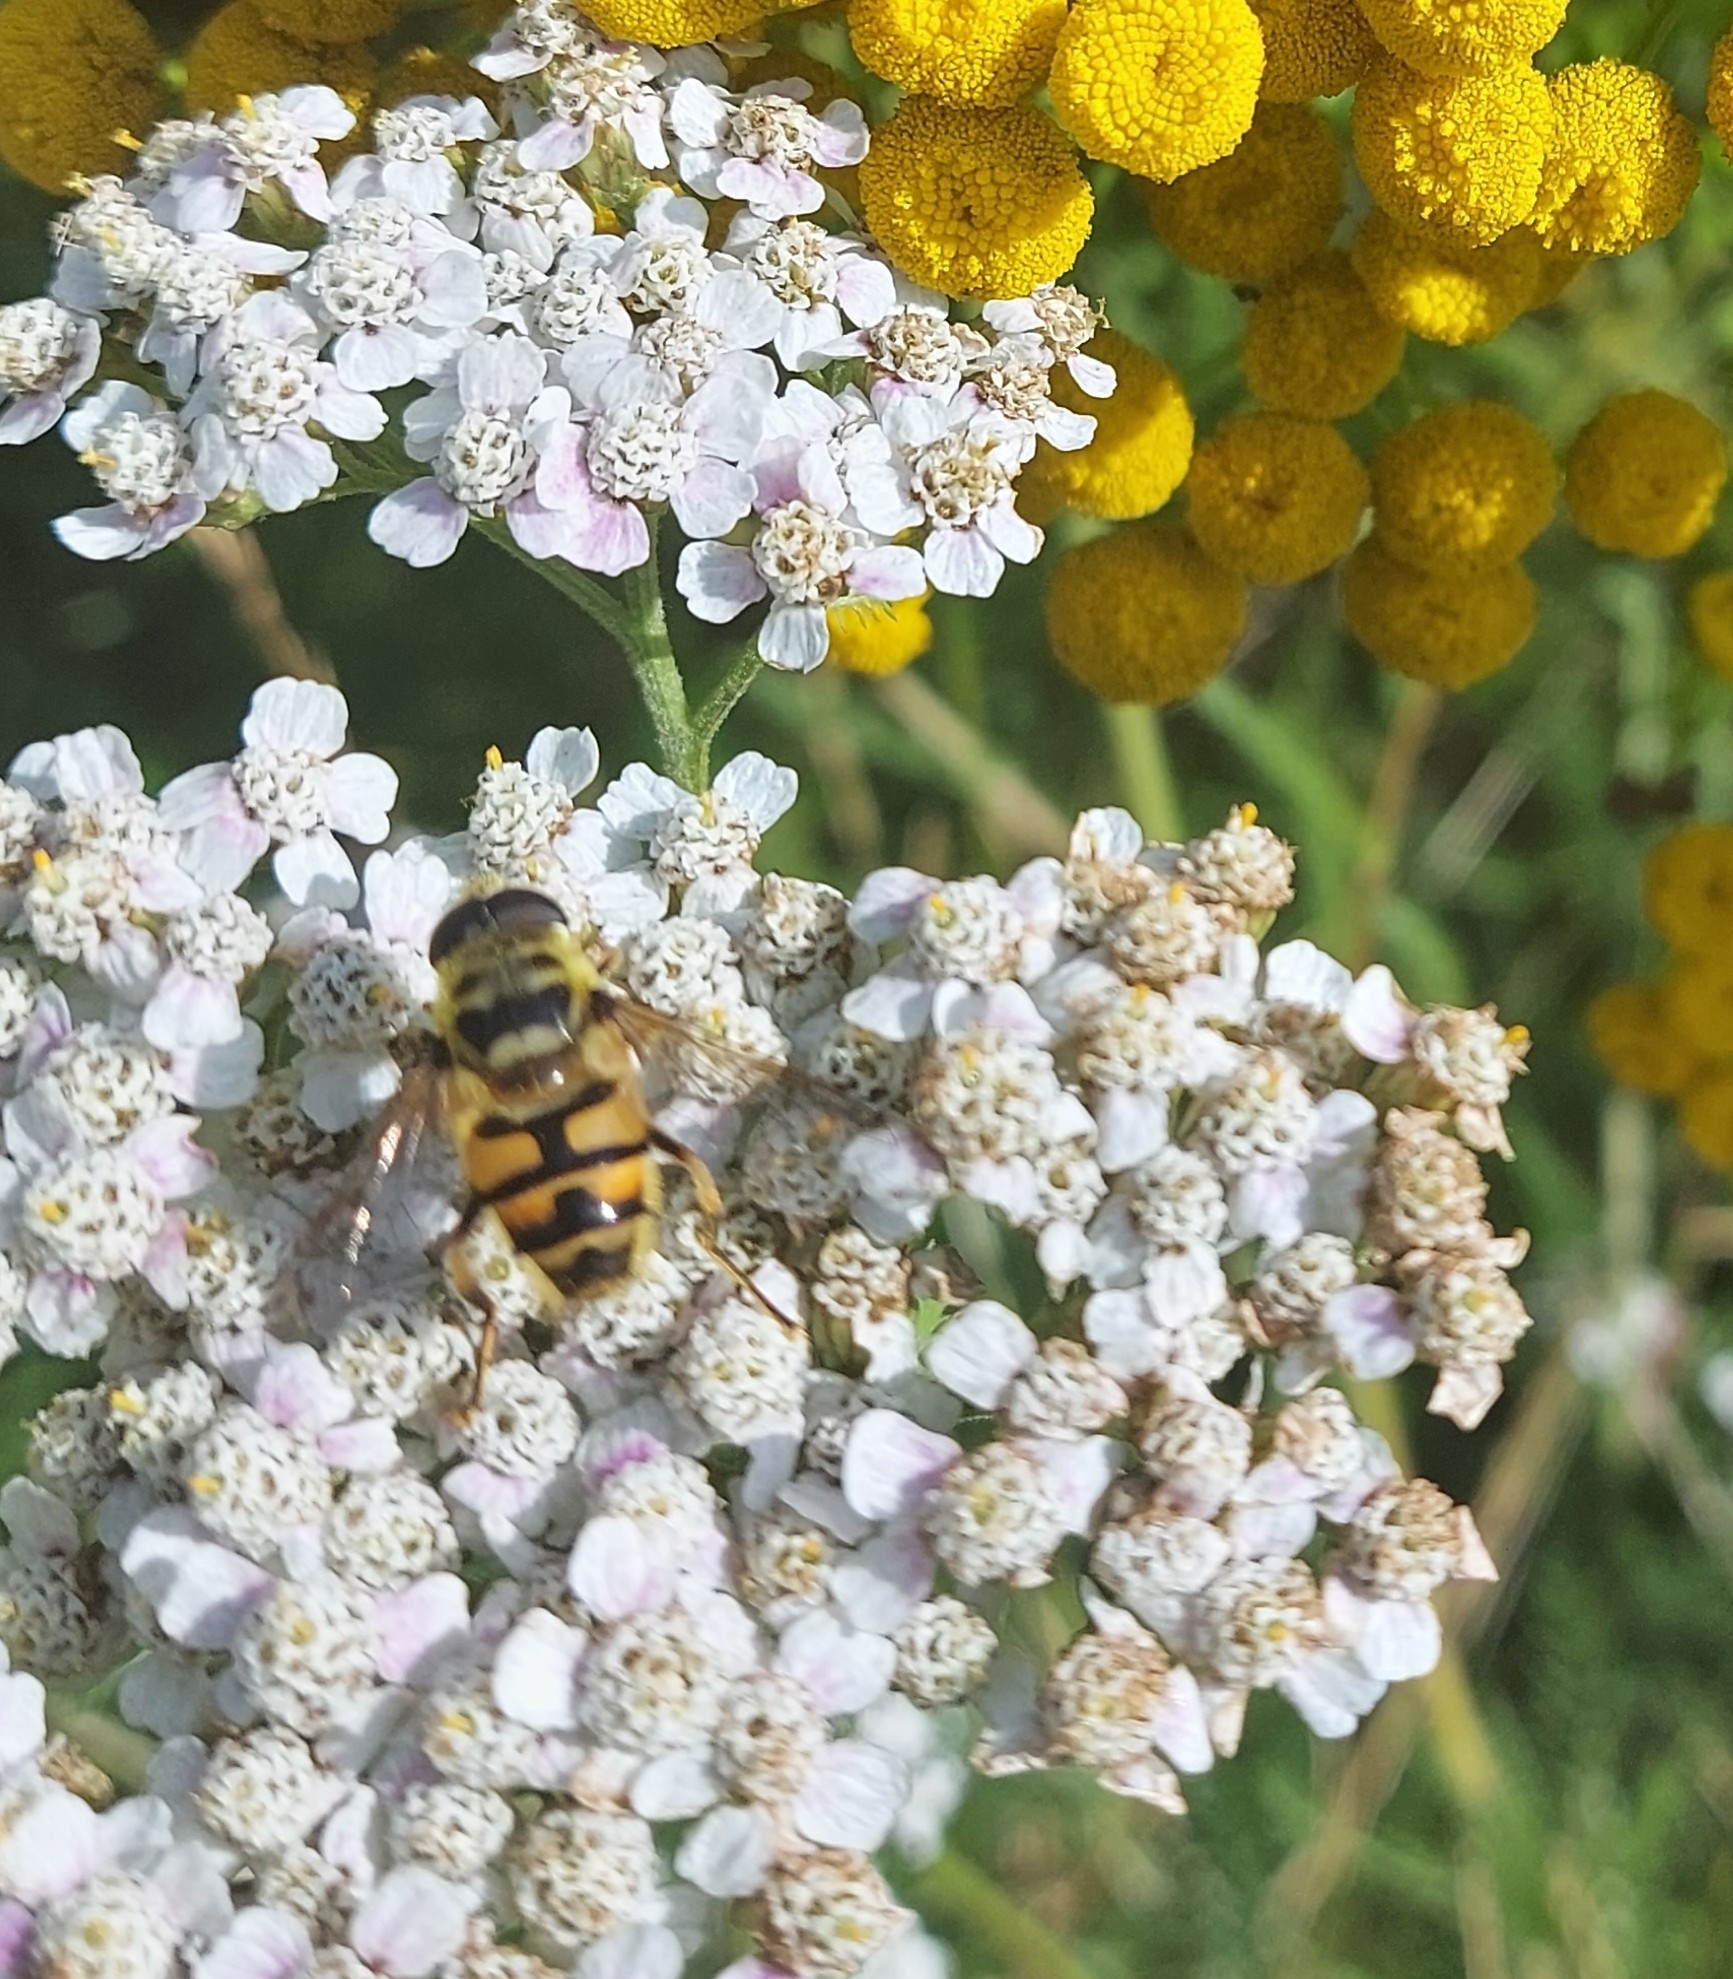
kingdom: Animalia
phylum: Arthropoda
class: Insecta
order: Diptera
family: Syrphidae
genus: Myathropa
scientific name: Myathropa florea
